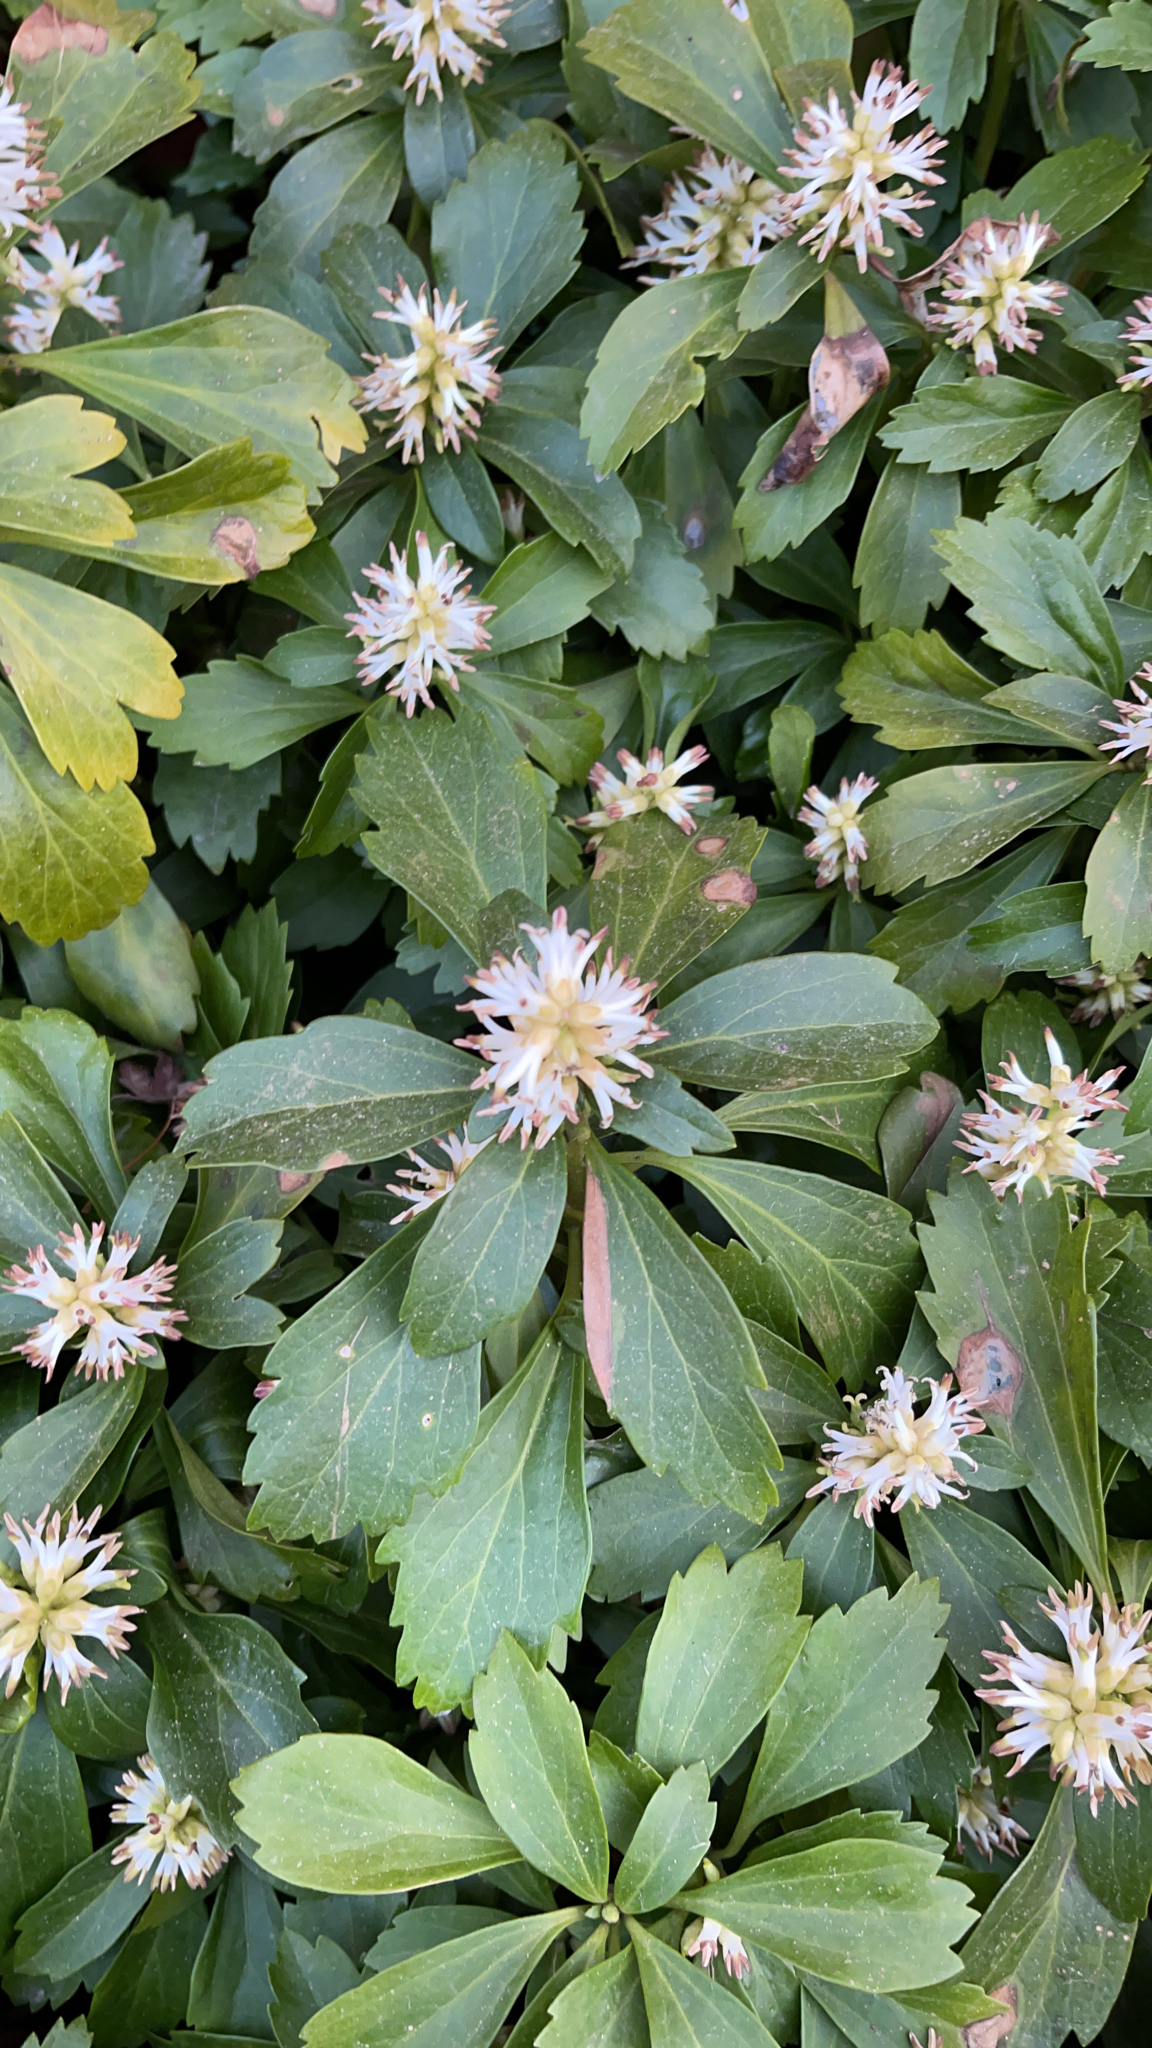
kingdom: Plantae
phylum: Tracheophyta
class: Magnoliopsida
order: Buxales
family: Buxaceae
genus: Pachysandra
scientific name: Pachysandra terminalis
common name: Japanese pachysandra
